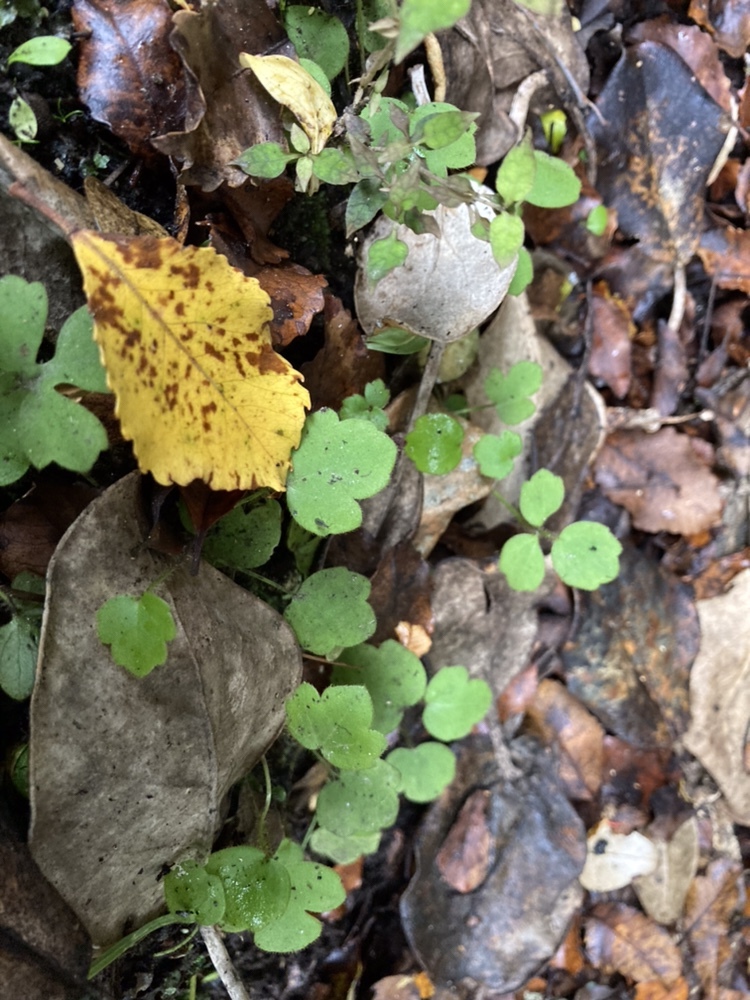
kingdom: Plantae
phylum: Tracheophyta
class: Magnoliopsida
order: Ranunculales
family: Ranunculaceae
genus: Ranunculus
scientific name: Ranunculus reflexus
